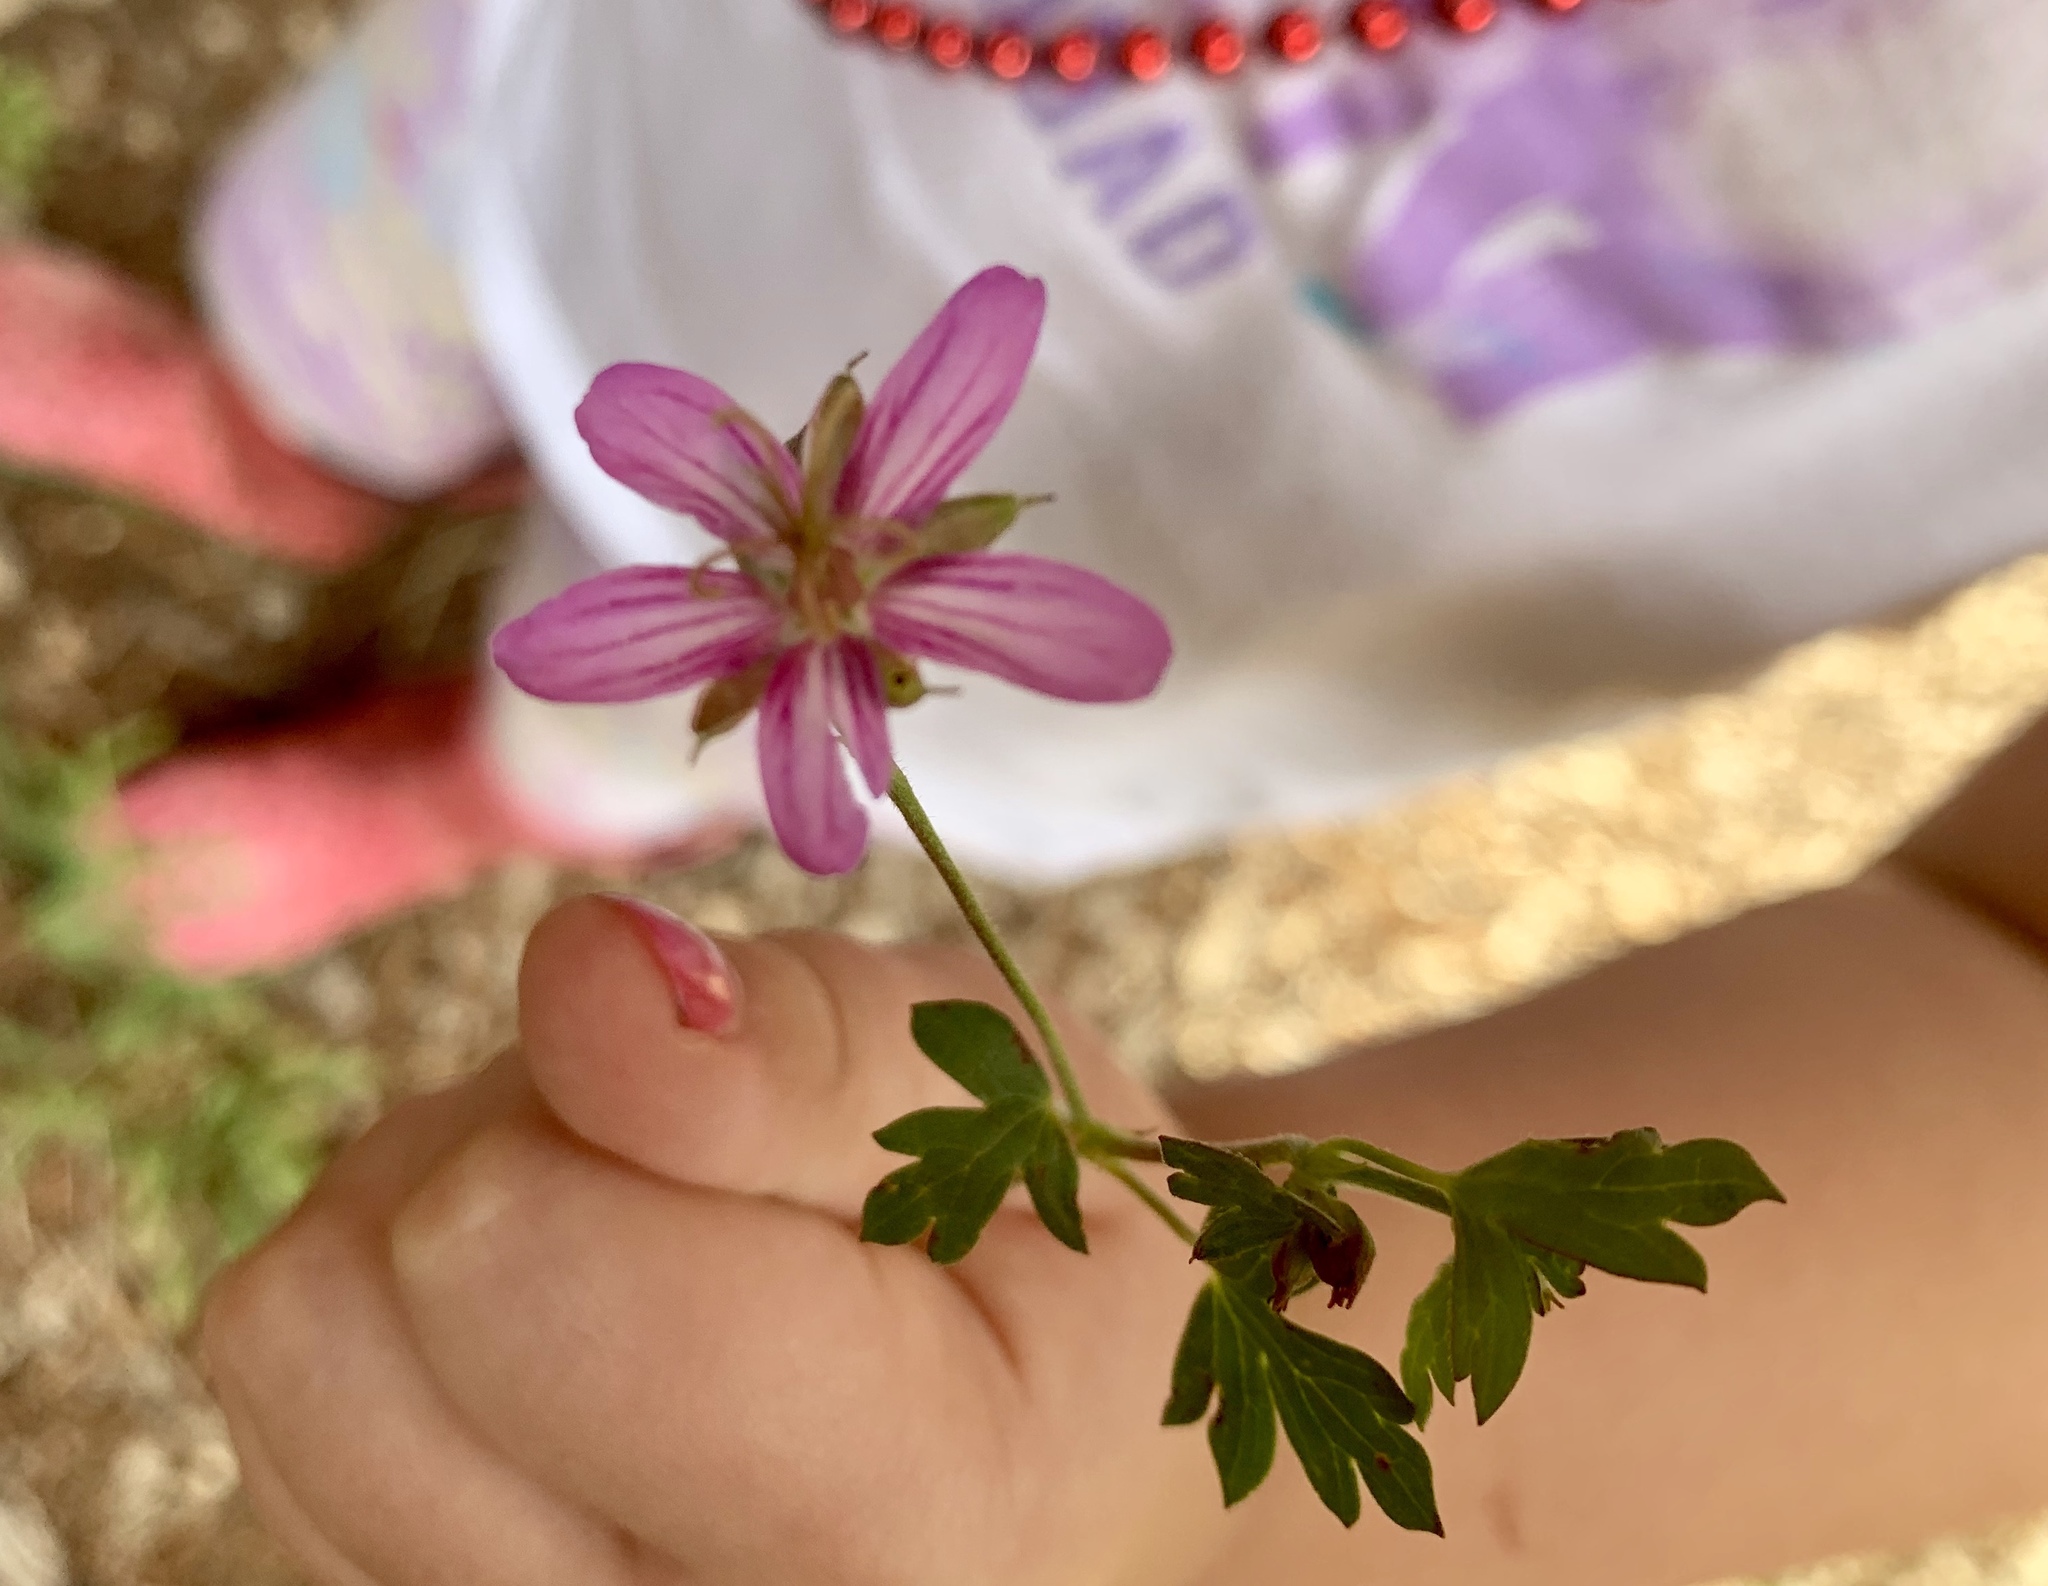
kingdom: Plantae
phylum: Tracheophyta
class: Magnoliopsida
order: Geraniales
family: Geraniaceae
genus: Geranium
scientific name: Geranium caespitosum
